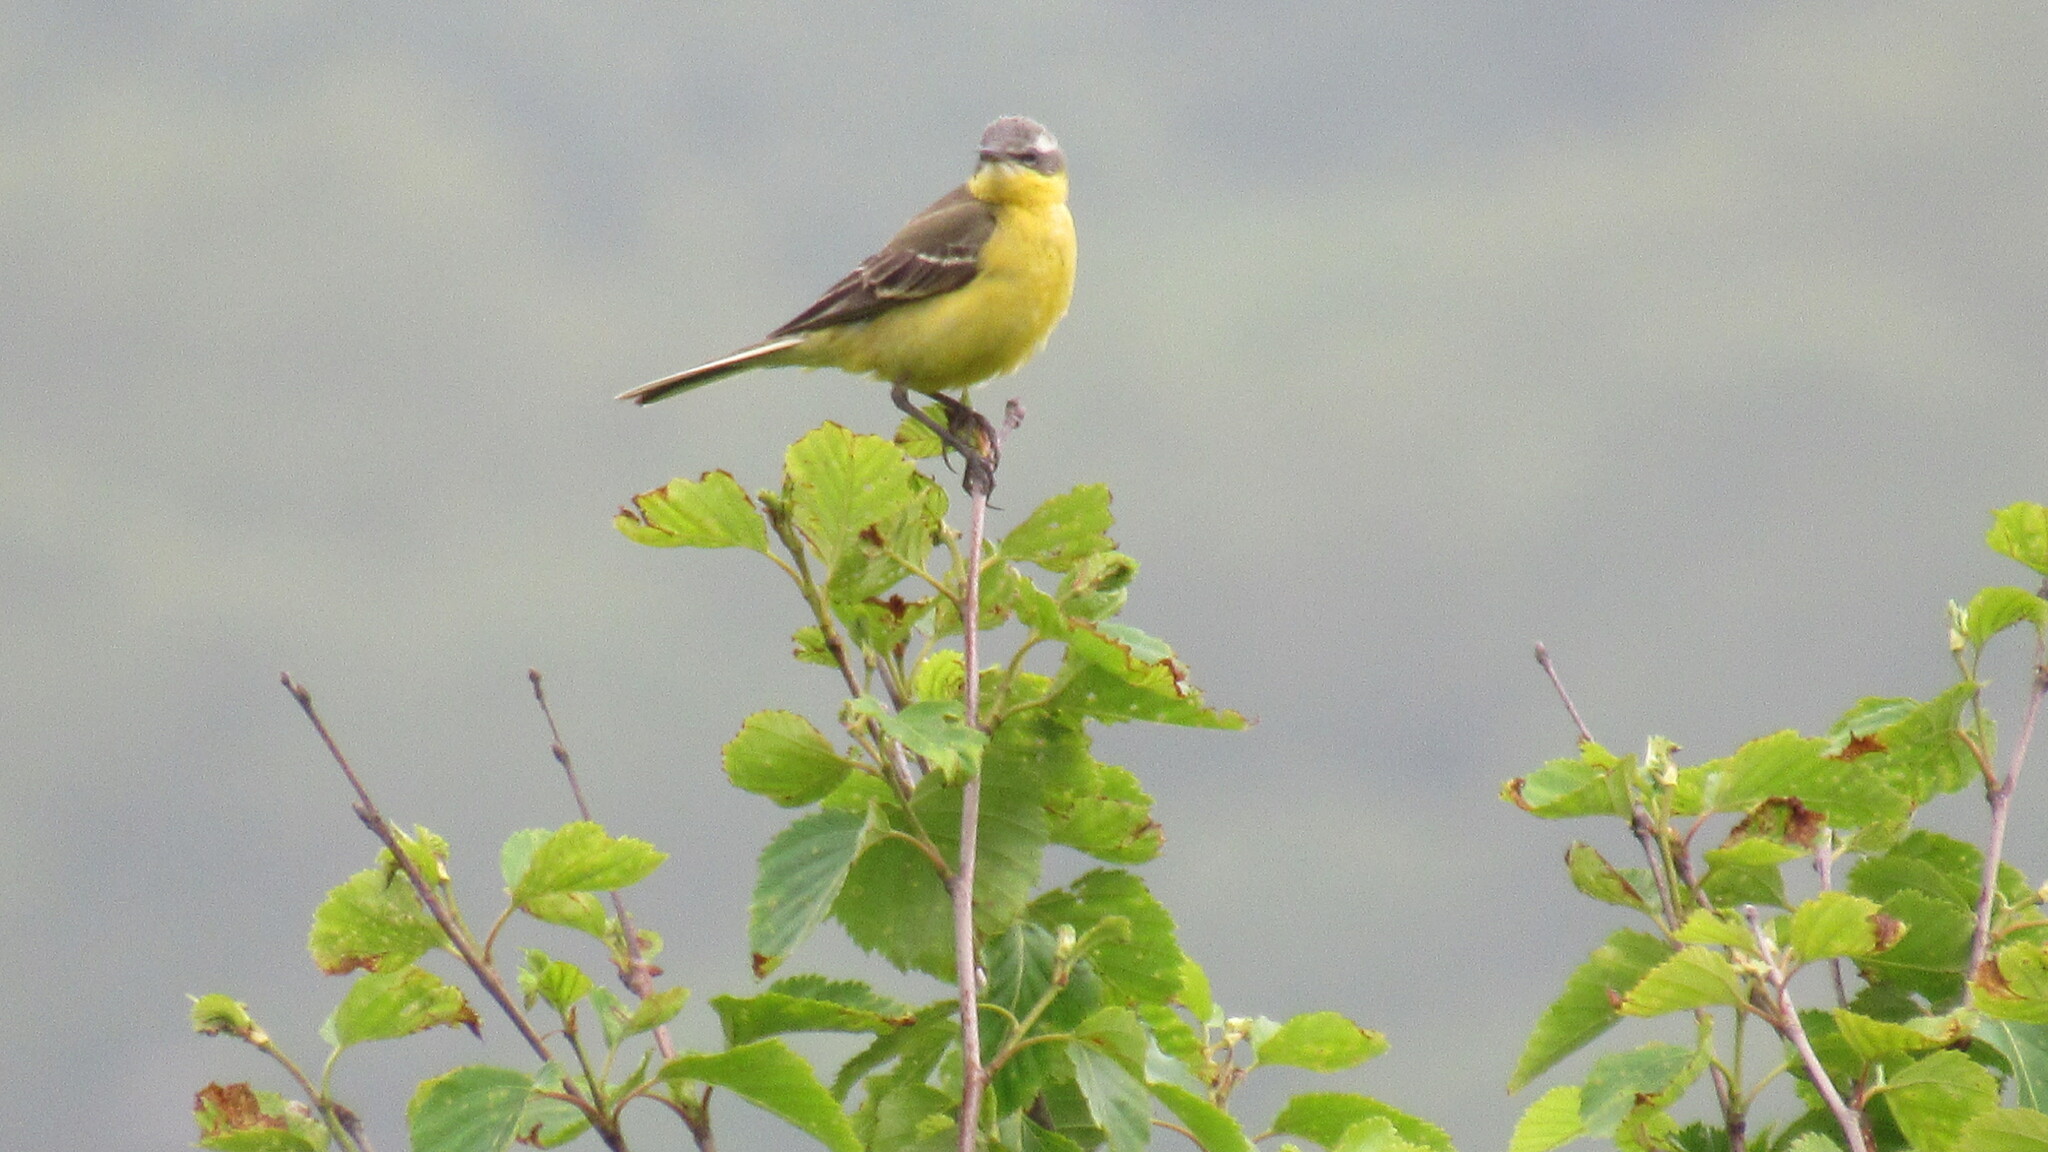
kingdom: Animalia
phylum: Chordata
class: Aves
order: Passeriformes
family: Motacillidae
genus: Motacilla
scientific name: Motacilla tschutschensis
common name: Eastern yellow wagtail
